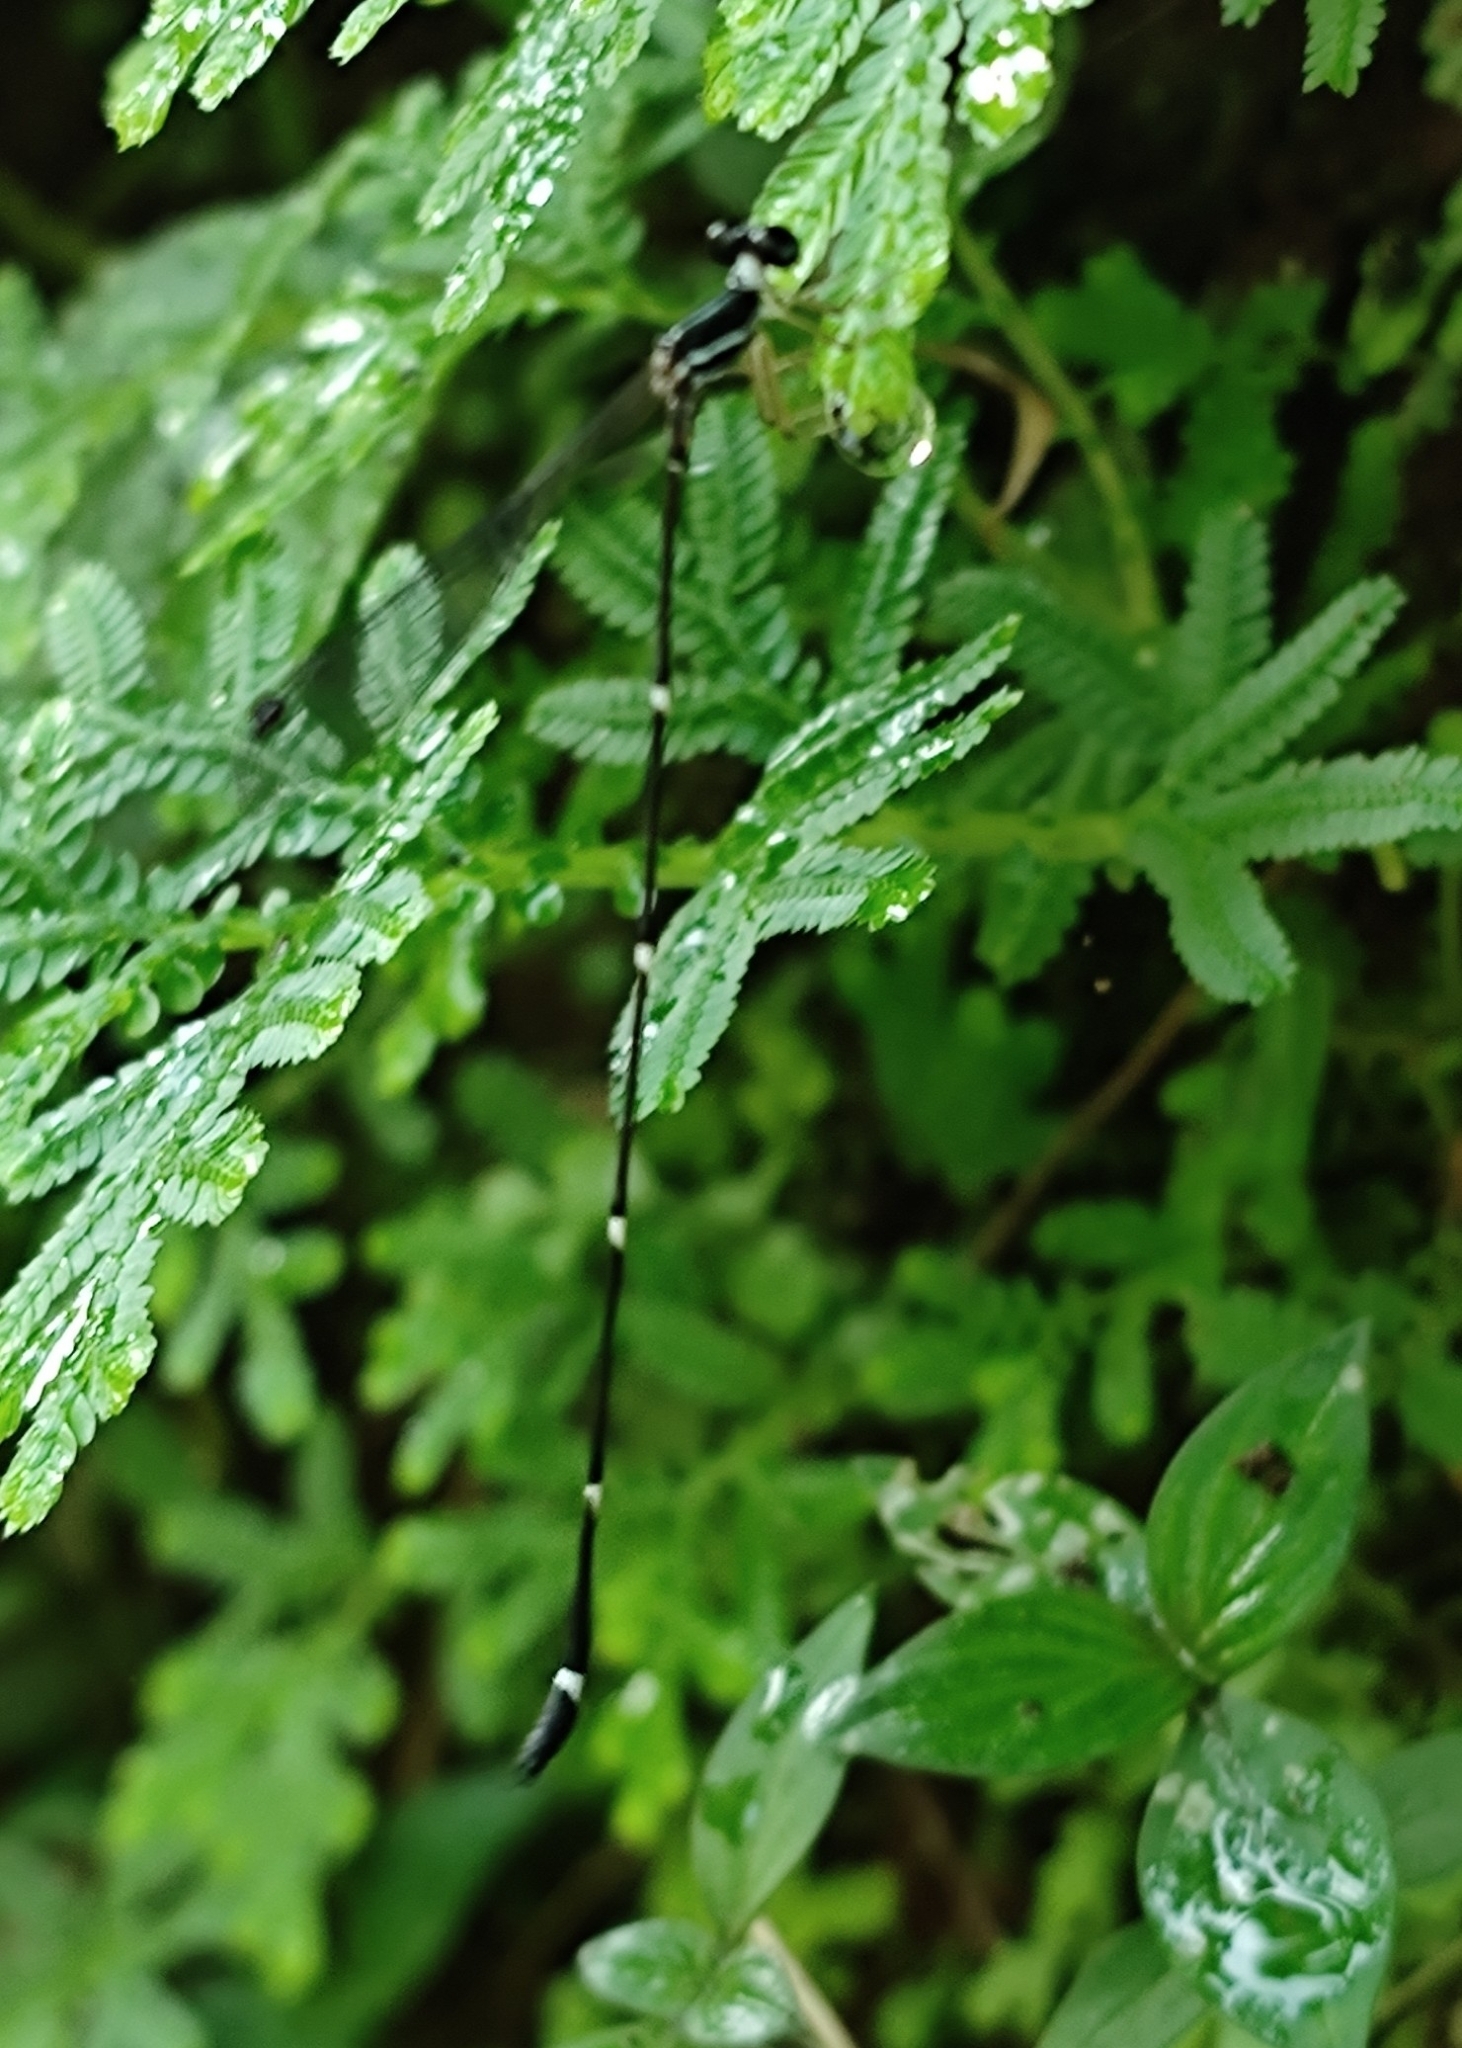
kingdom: Animalia
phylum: Arthropoda
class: Insecta
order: Odonata
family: Platystictidae
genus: Protosticta
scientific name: Protosticta gravelyi
